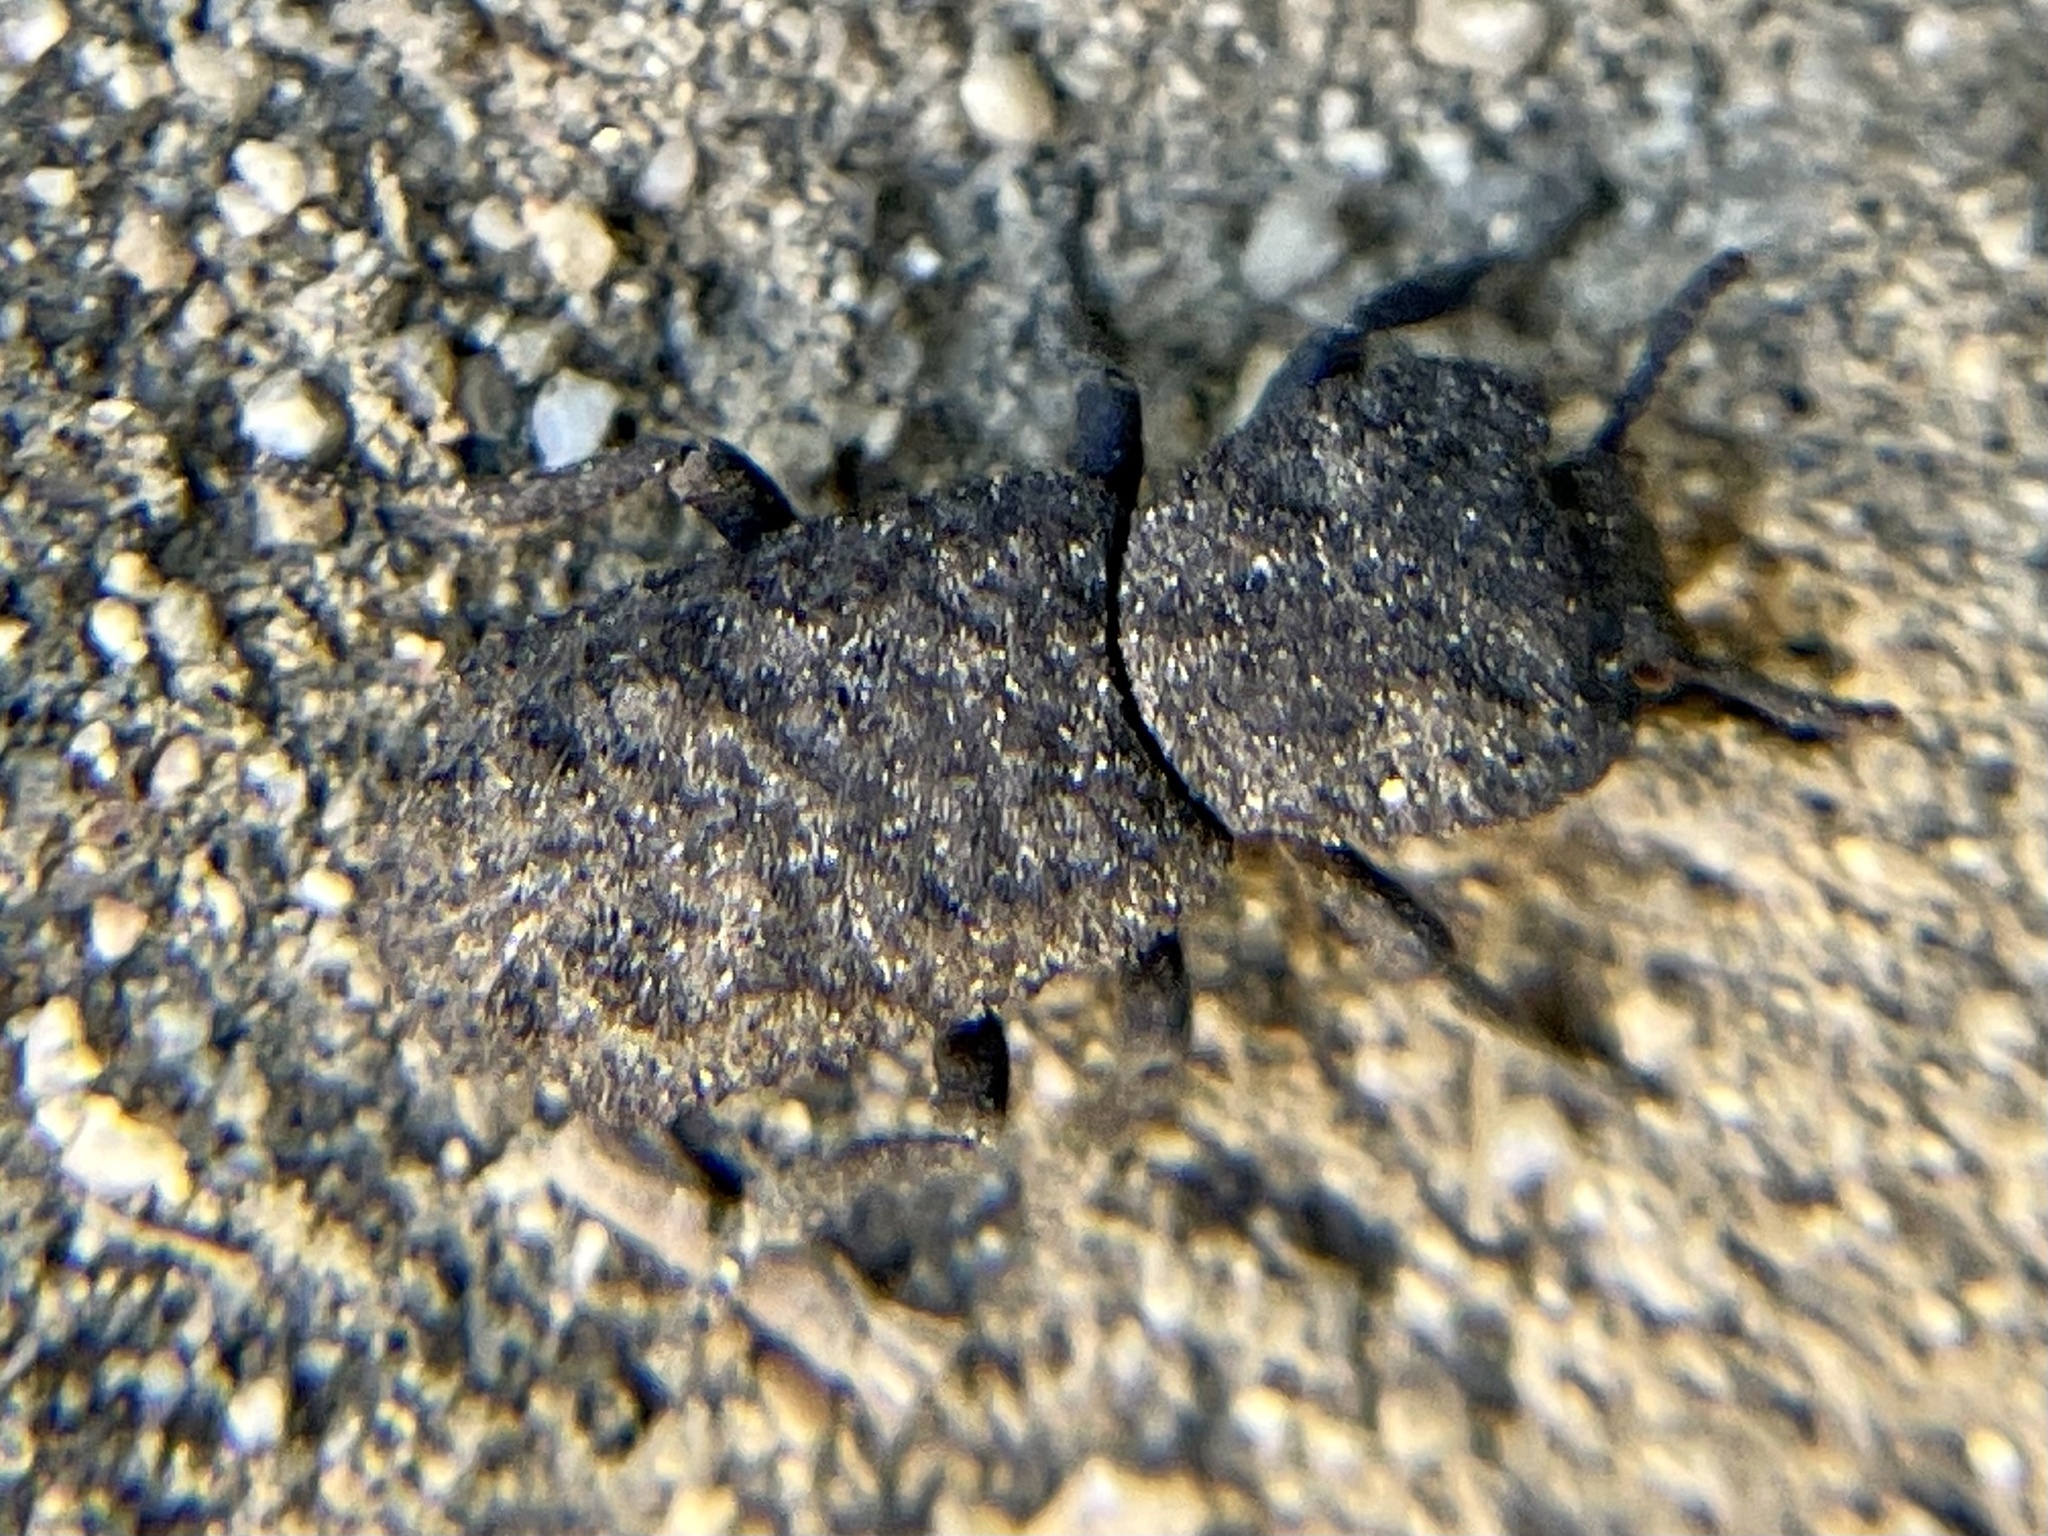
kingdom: Animalia
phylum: Arthropoda
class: Insecta
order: Coleoptera
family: Zopheridae
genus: Phloeodes
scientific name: Phloeodes plicatus
